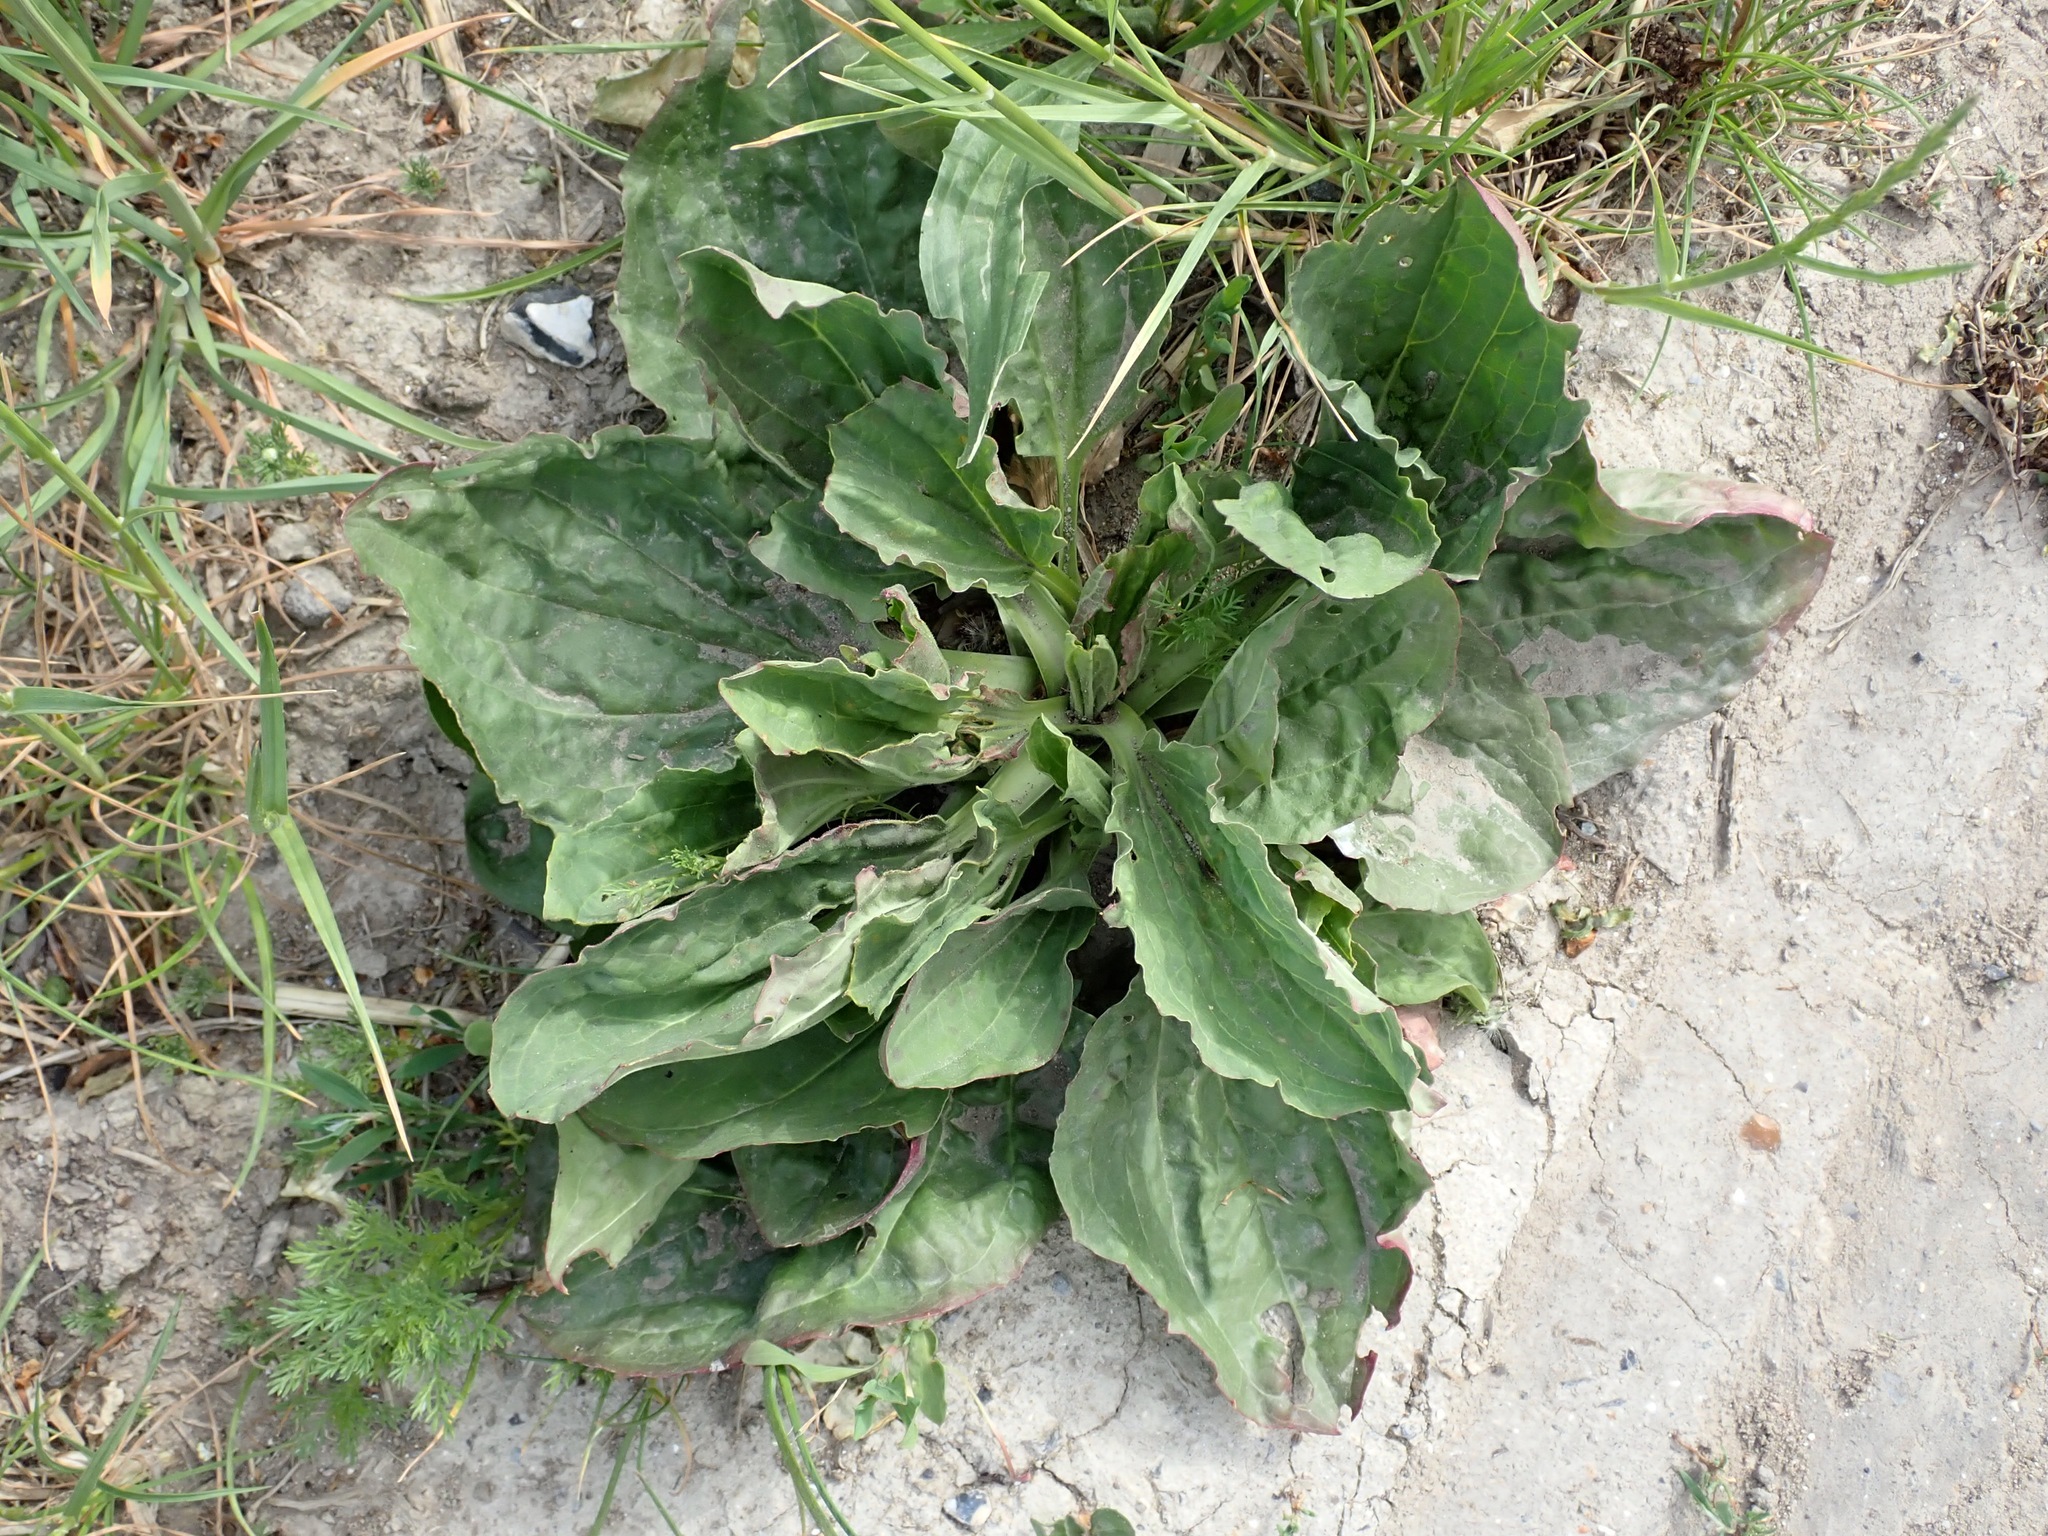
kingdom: Plantae
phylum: Tracheophyta
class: Magnoliopsida
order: Lamiales
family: Plantaginaceae
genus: Plantago
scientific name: Plantago major
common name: Common plantain
